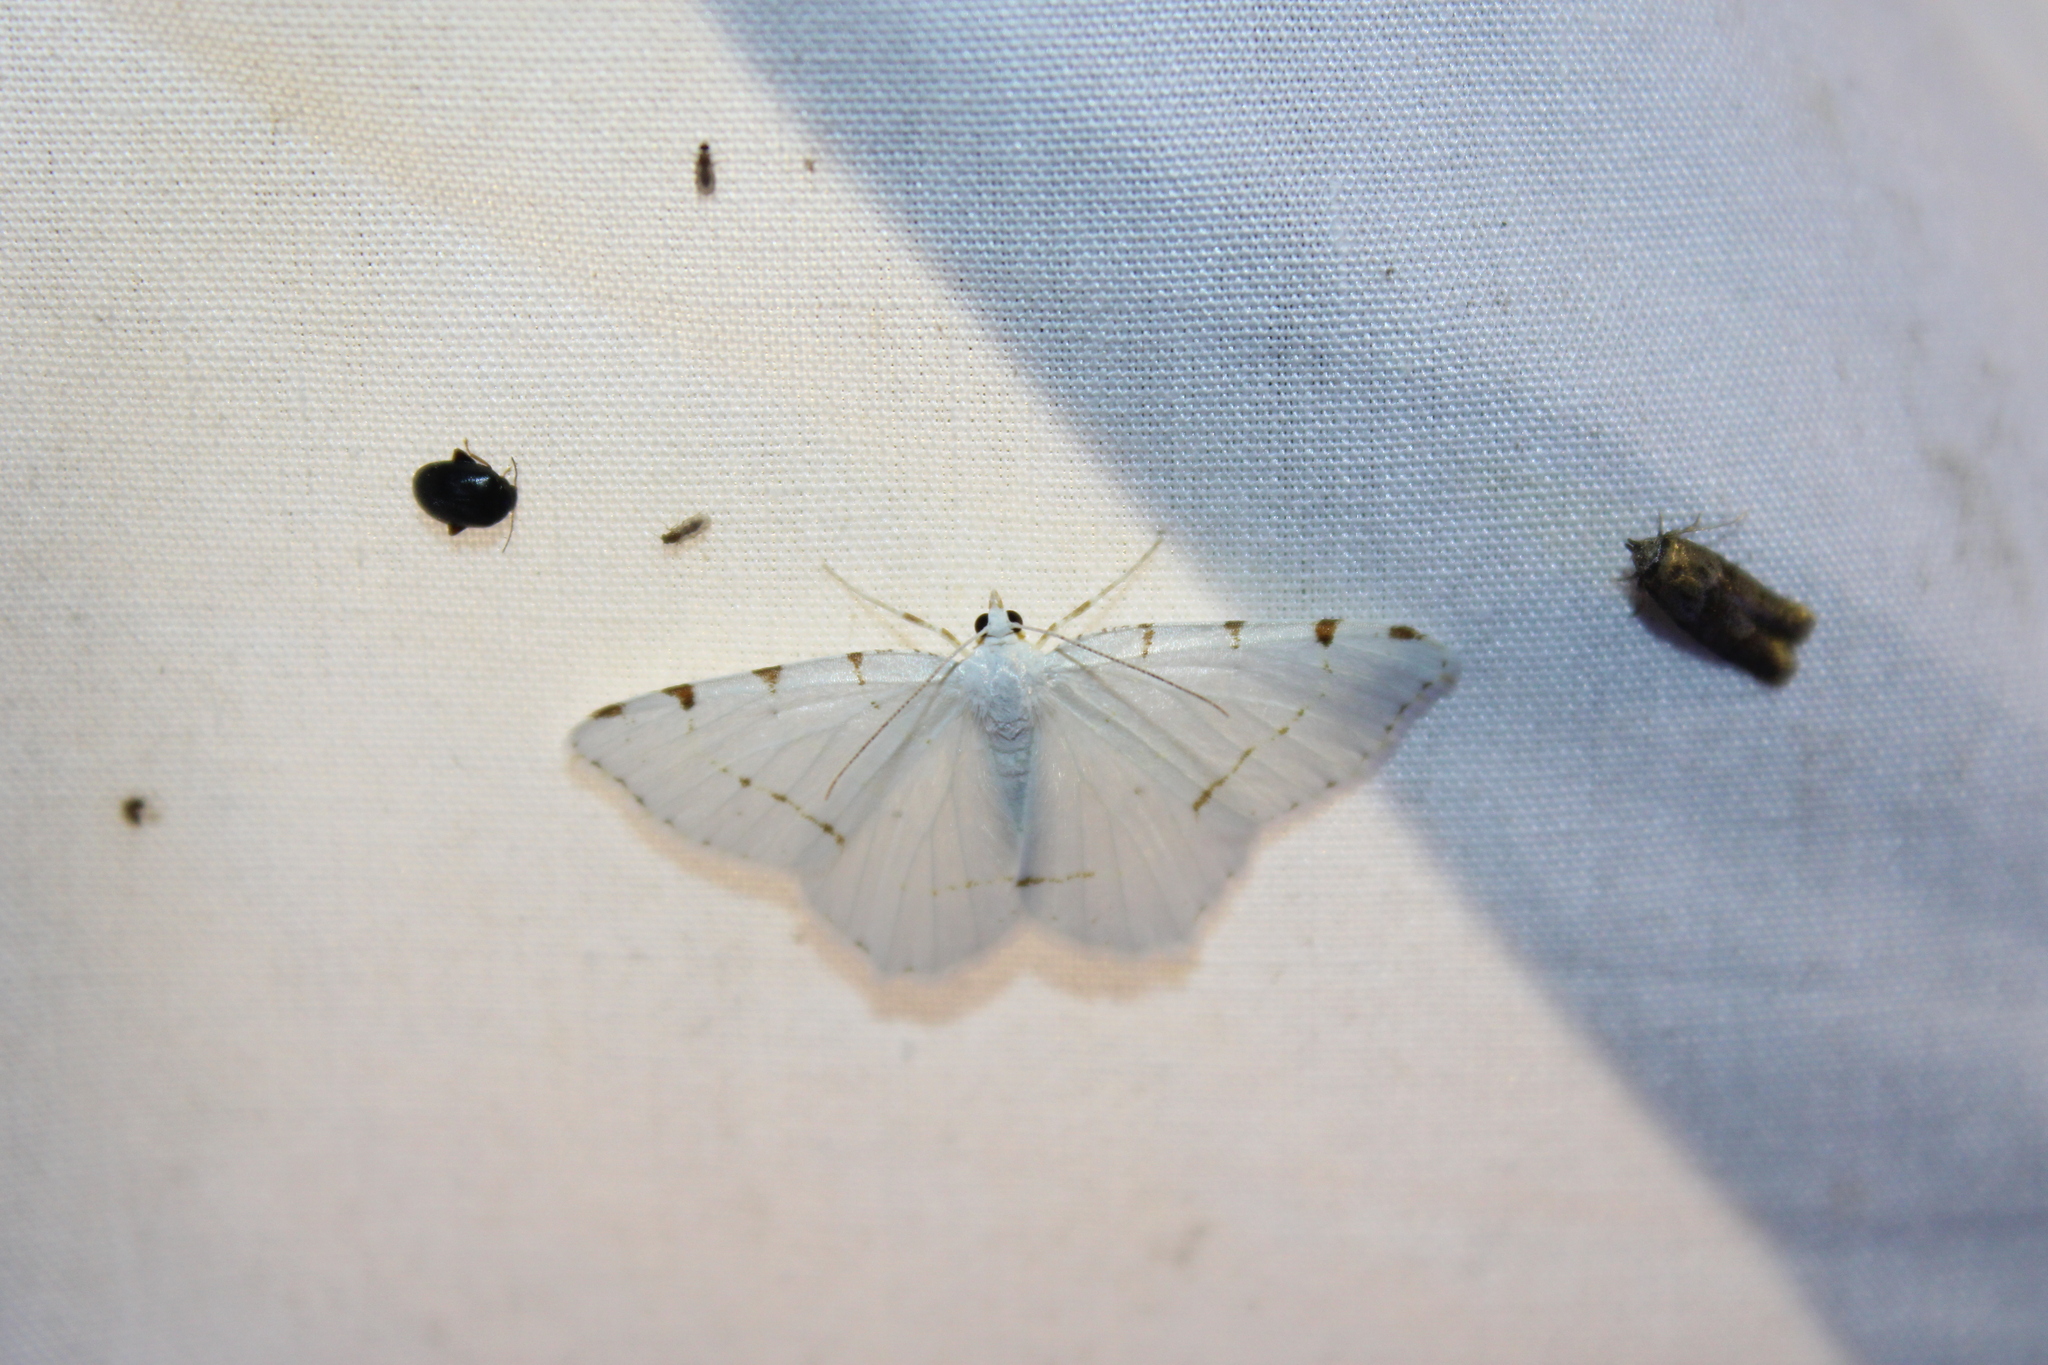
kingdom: Animalia
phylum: Arthropoda
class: Insecta
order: Lepidoptera
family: Geometridae
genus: Macaria
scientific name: Macaria pustularia
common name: Lesser maple spanworm moth
